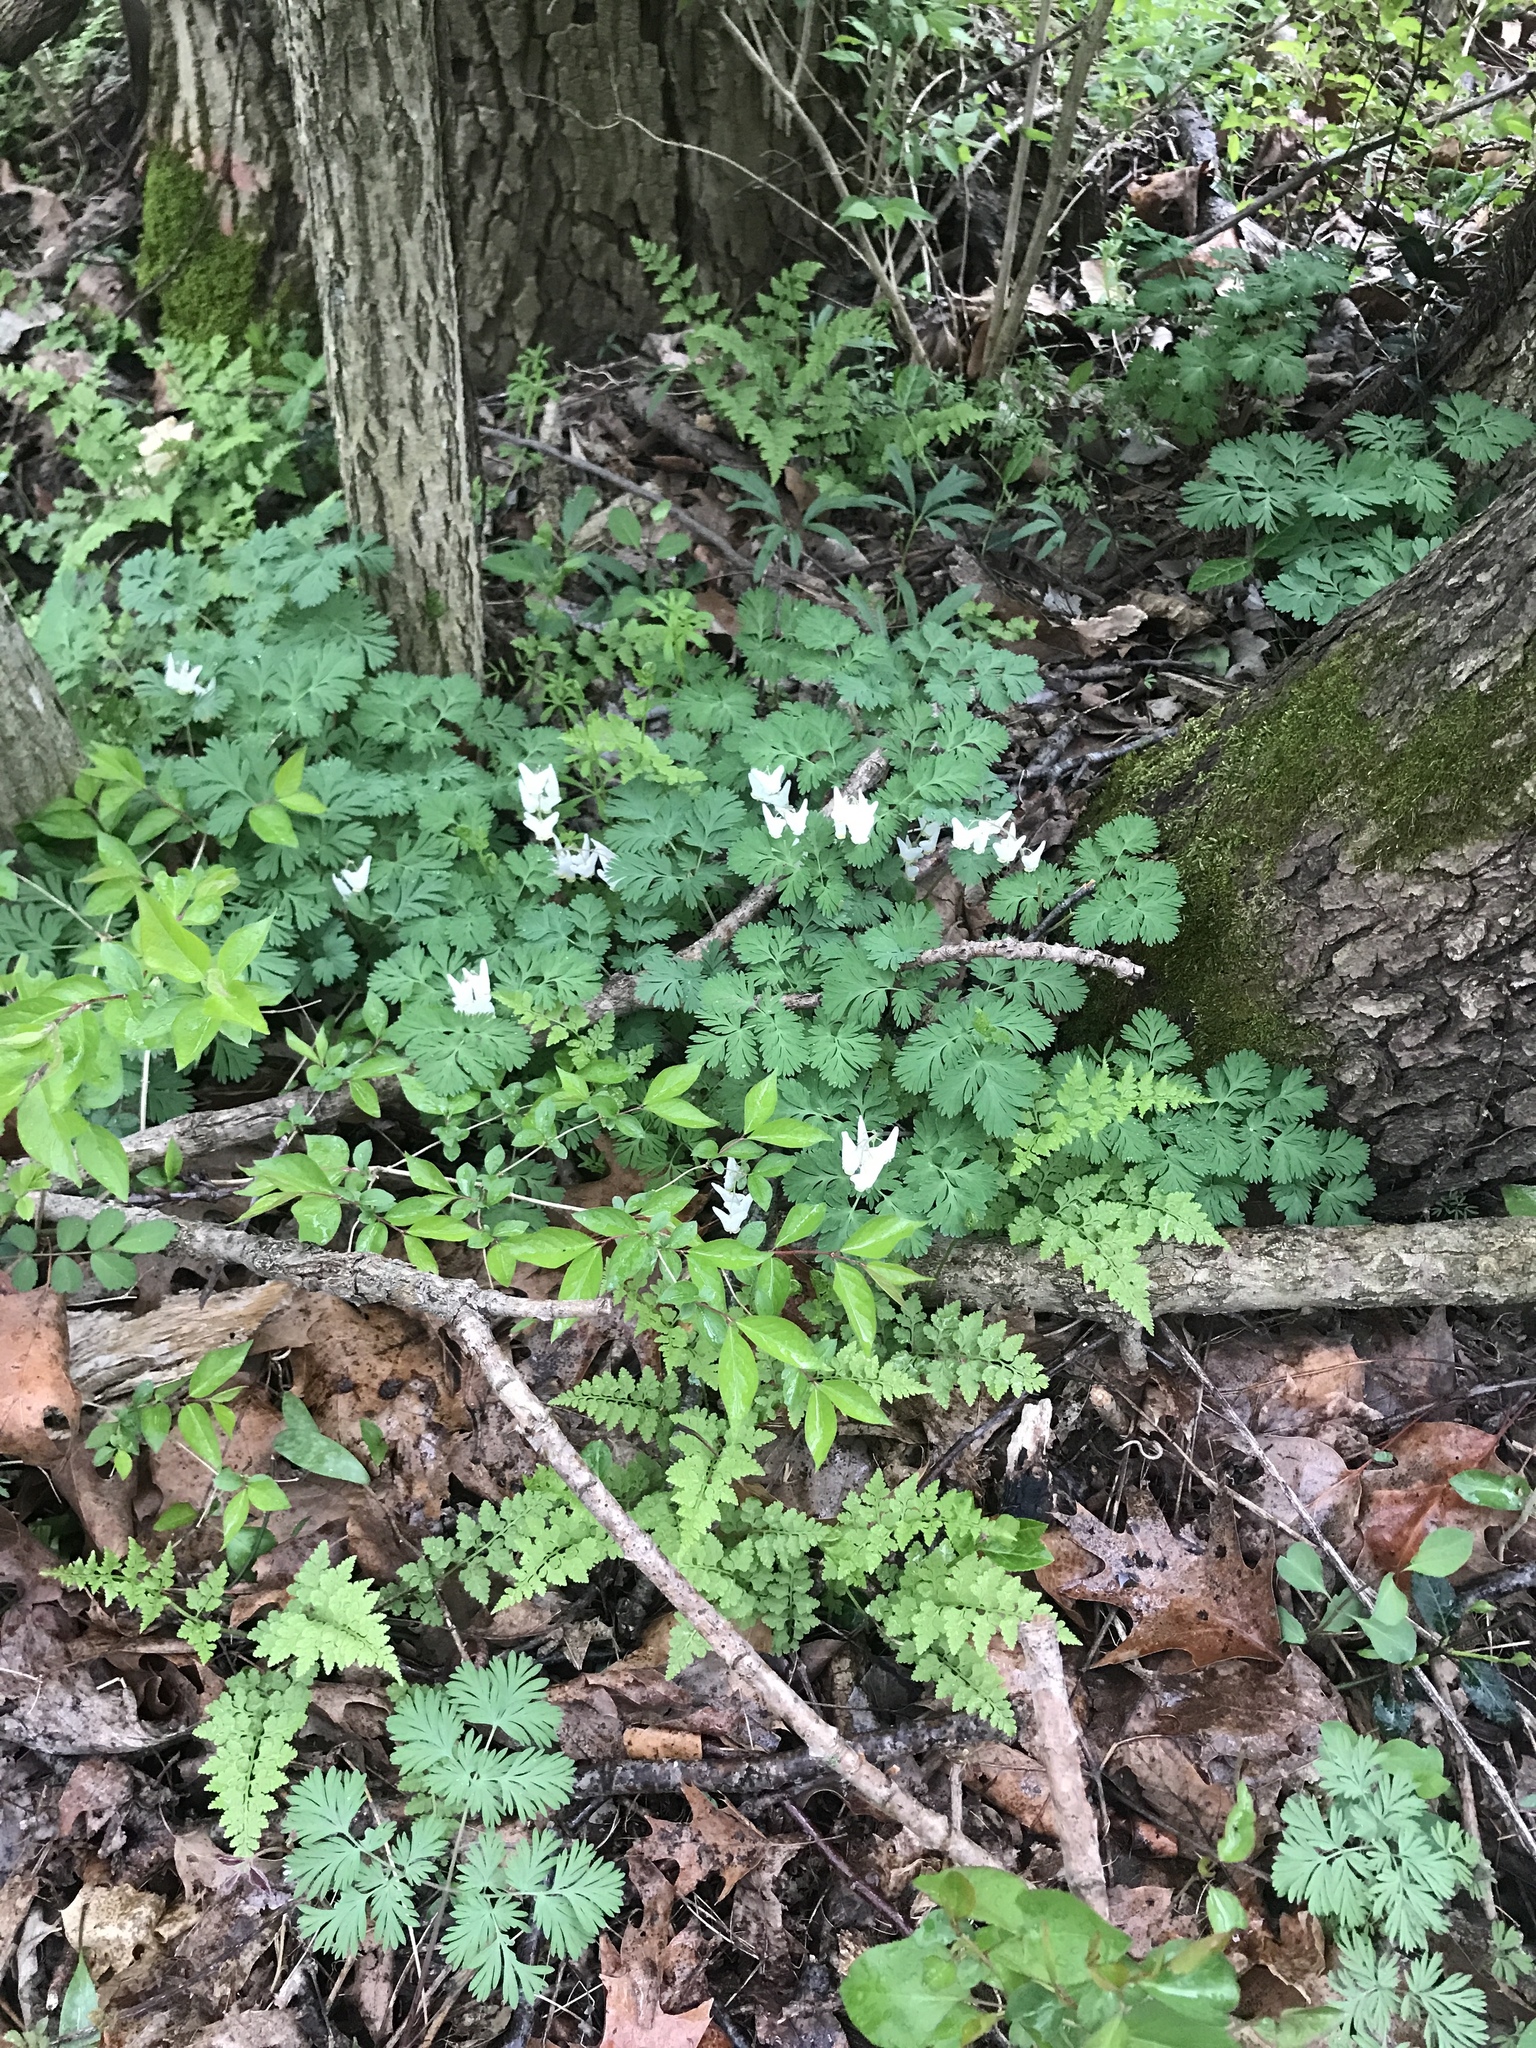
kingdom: Plantae
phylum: Tracheophyta
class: Magnoliopsida
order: Ranunculales
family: Papaveraceae
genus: Dicentra
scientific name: Dicentra cucullaria
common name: Dutchman's breeches
